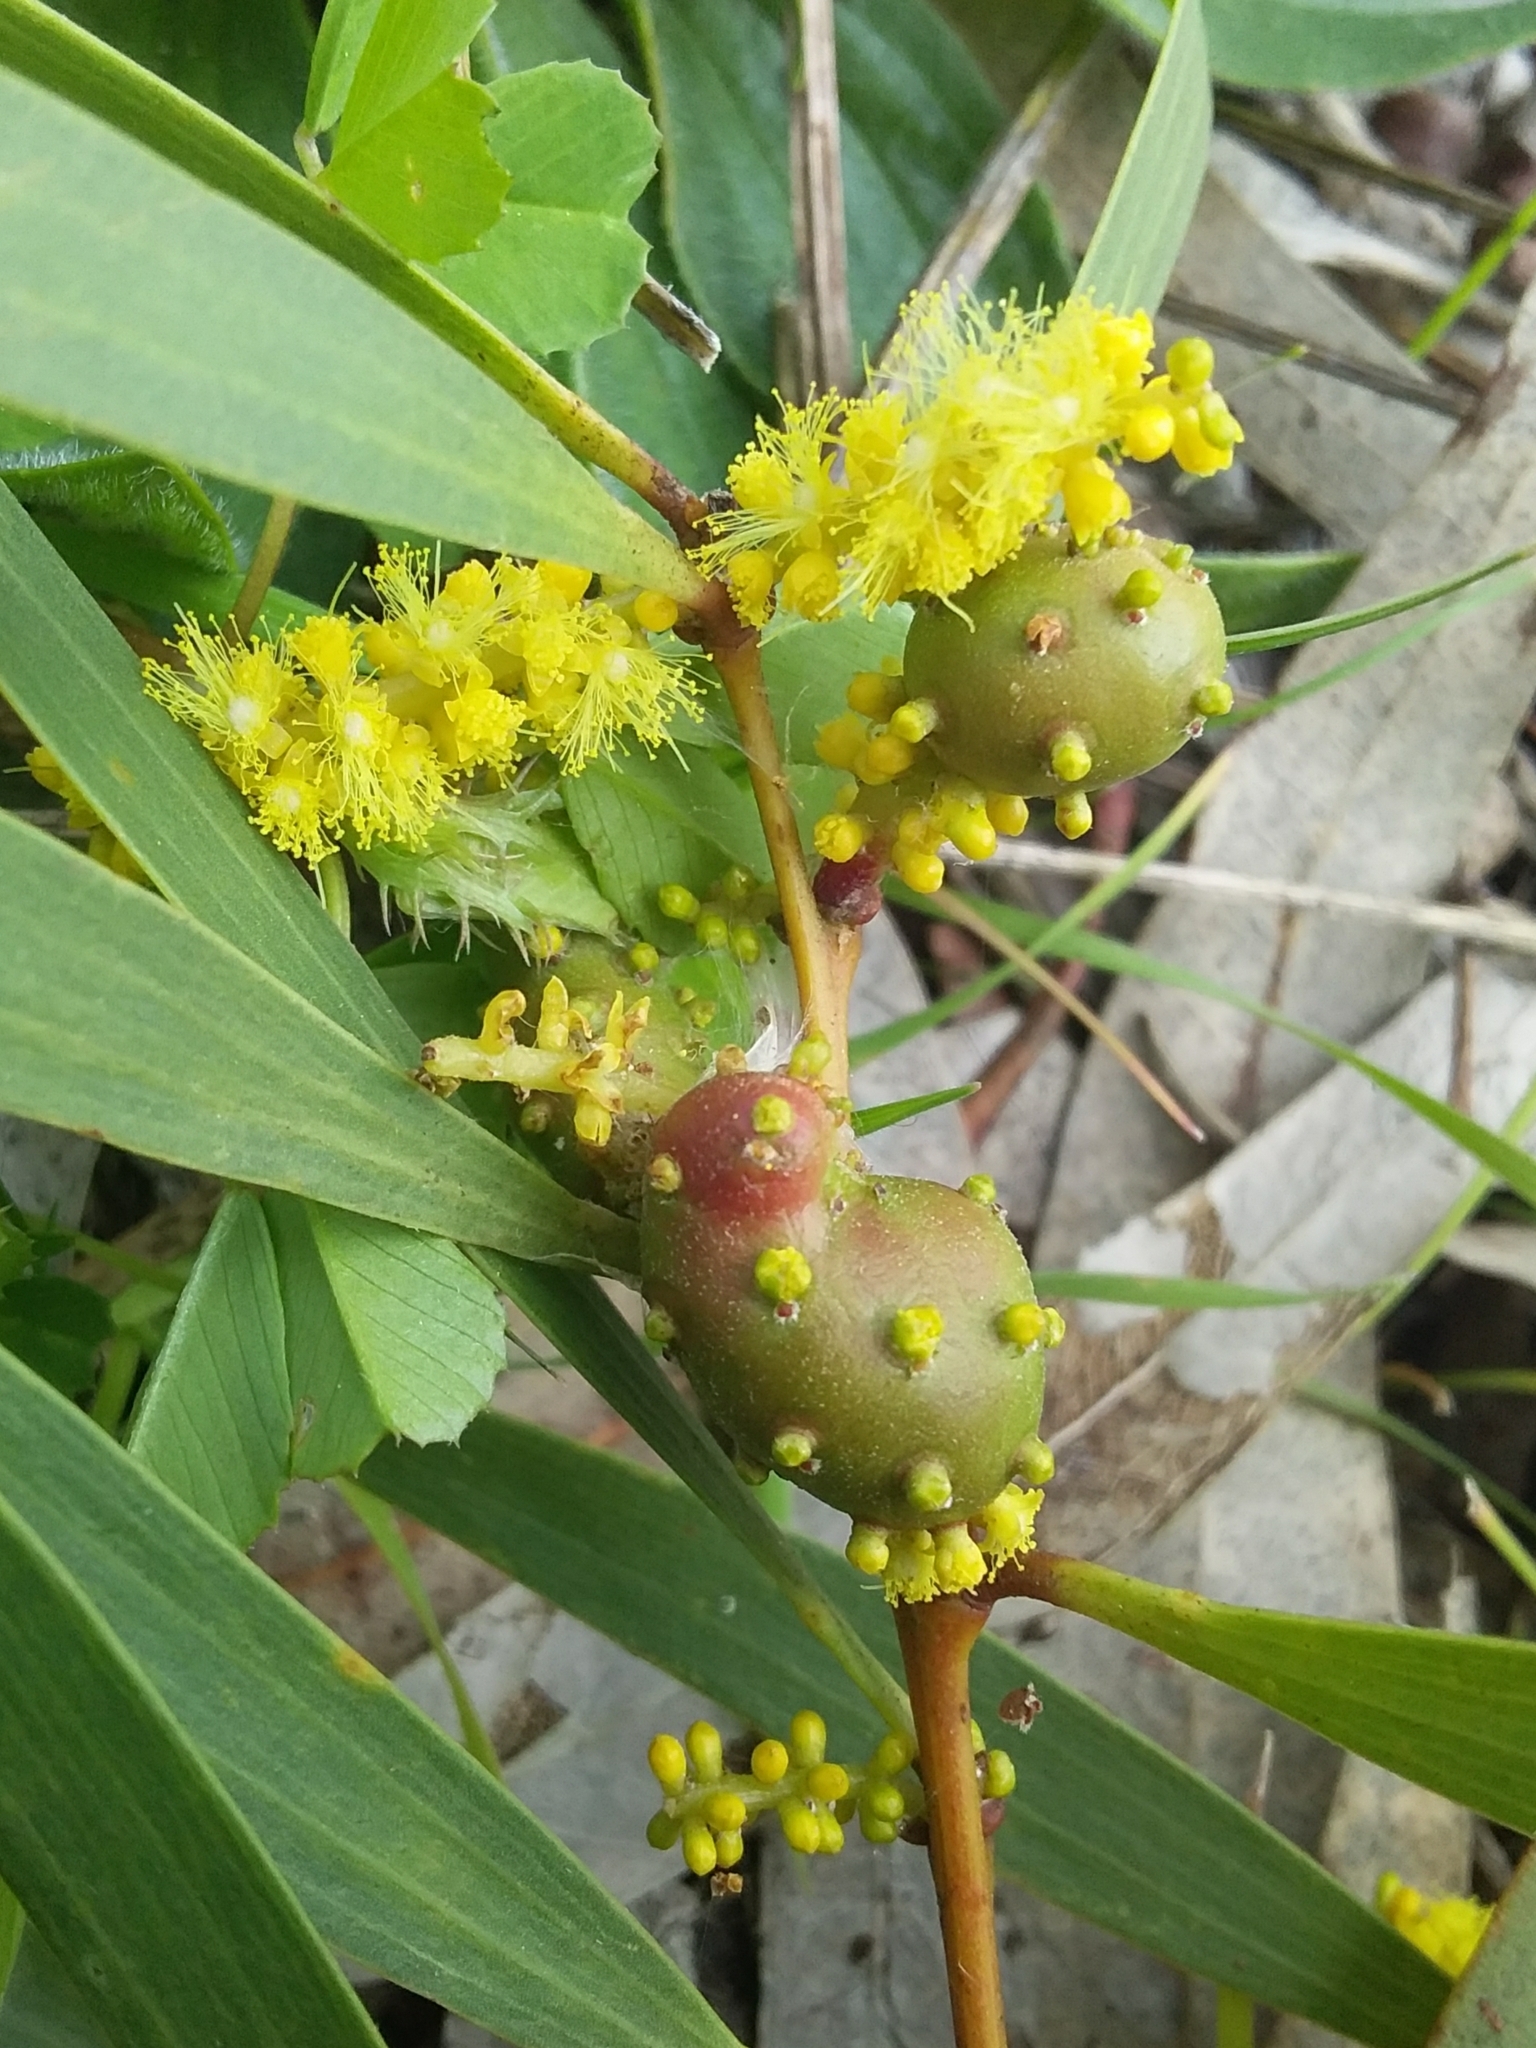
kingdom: Animalia
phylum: Arthropoda
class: Insecta
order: Hymenoptera
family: Pteromalidae
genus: Trichilogaster
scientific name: Trichilogaster acaciaelongifoliae
